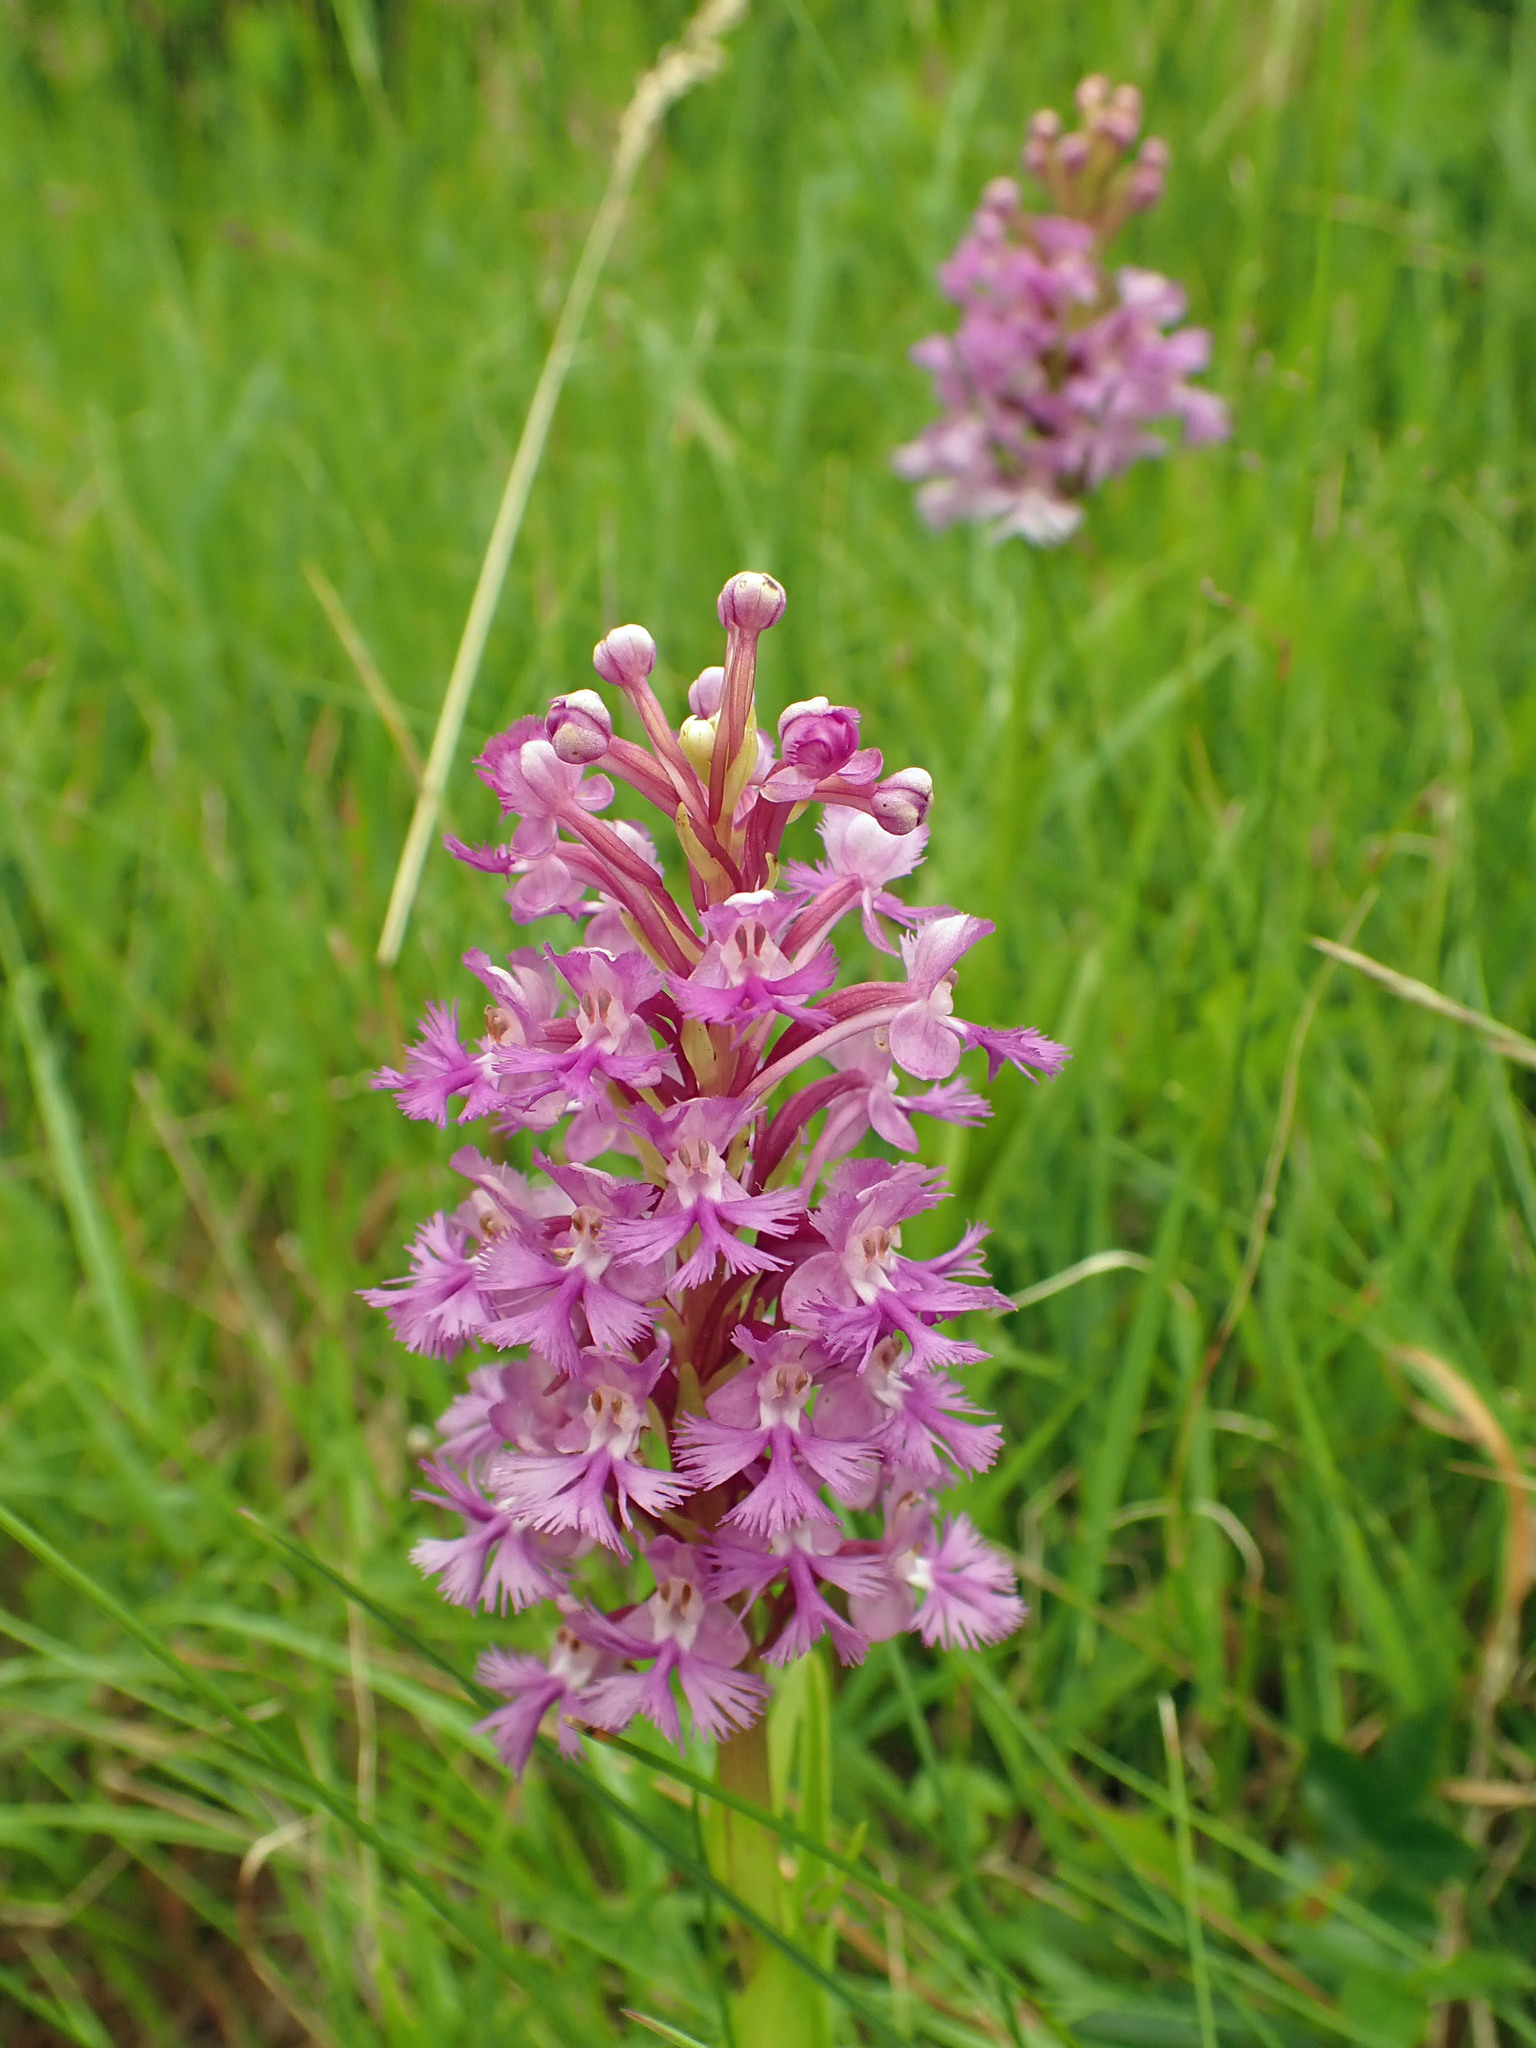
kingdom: Plantae
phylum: Tracheophyta
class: Liliopsida
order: Asparagales
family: Orchidaceae
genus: Platanthera
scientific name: Platanthera psycodes
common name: Lesser purple fringed orchid
